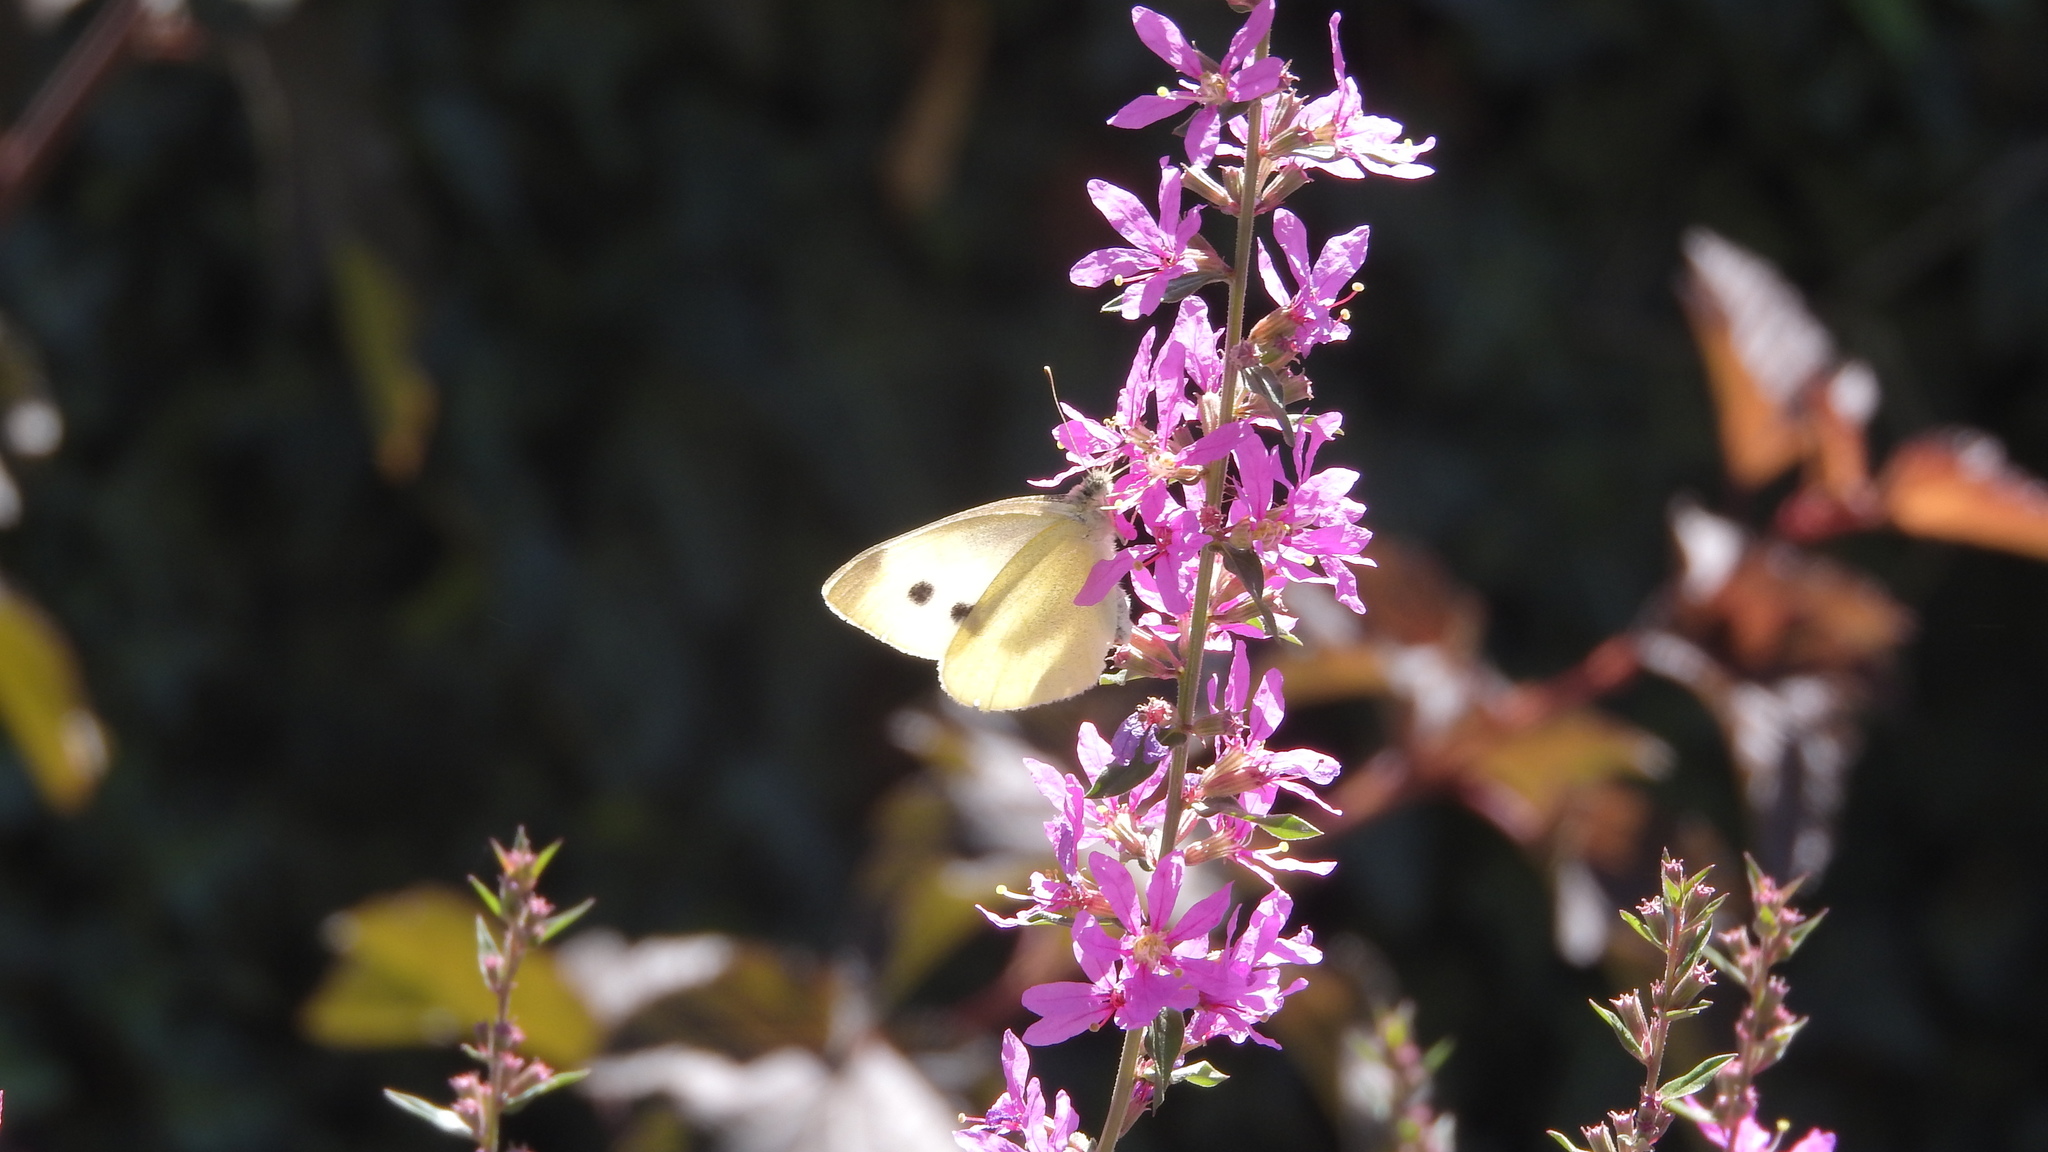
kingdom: Animalia
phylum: Arthropoda
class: Insecta
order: Lepidoptera
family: Pieridae
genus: Pieris
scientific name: Pieris rapae
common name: Small white
